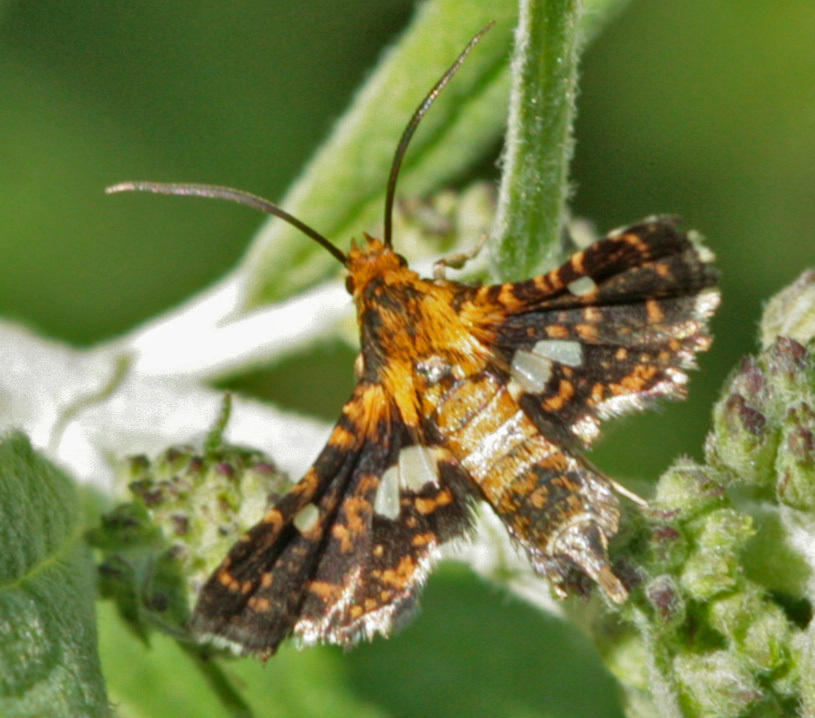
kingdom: Animalia
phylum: Arthropoda
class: Insecta
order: Lepidoptera
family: Thyrididae
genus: Thyris
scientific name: Thyris maculata
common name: Spotted thyris moth
